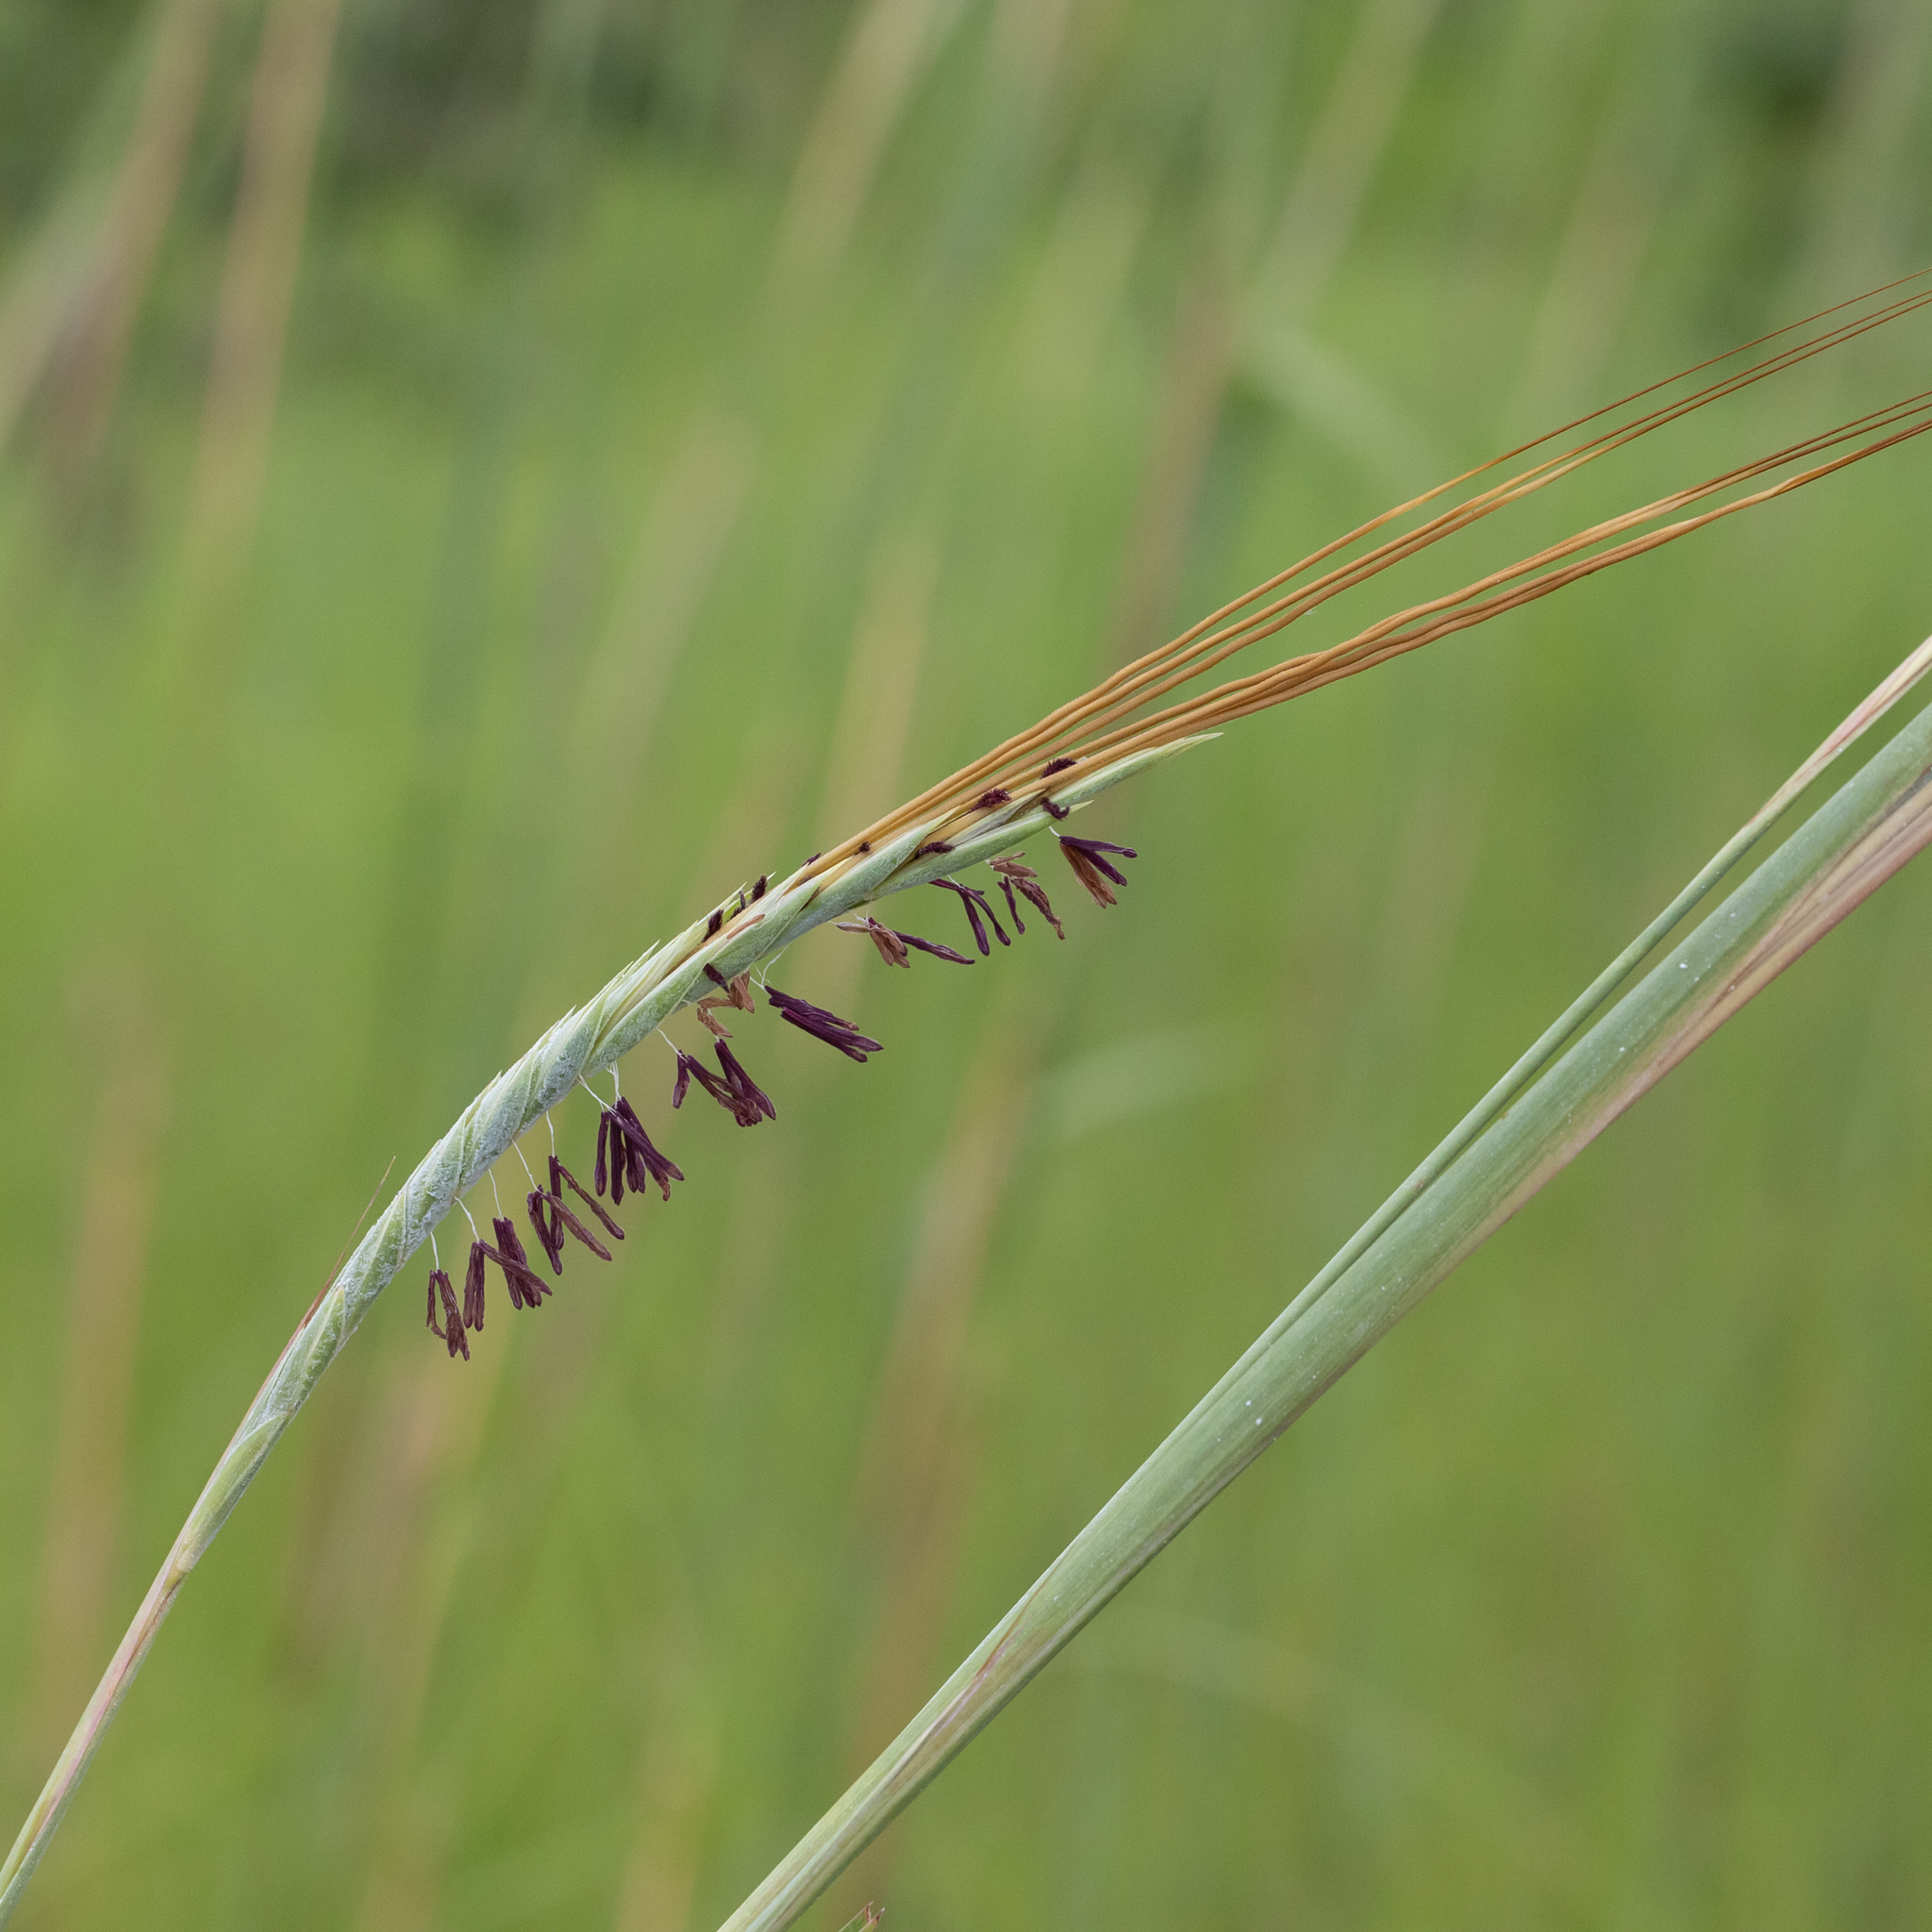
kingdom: Plantae
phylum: Tracheophyta
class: Liliopsida
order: Poales
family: Poaceae
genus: Heteropogon
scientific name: Heteropogon triticeus
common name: Sugar grass
